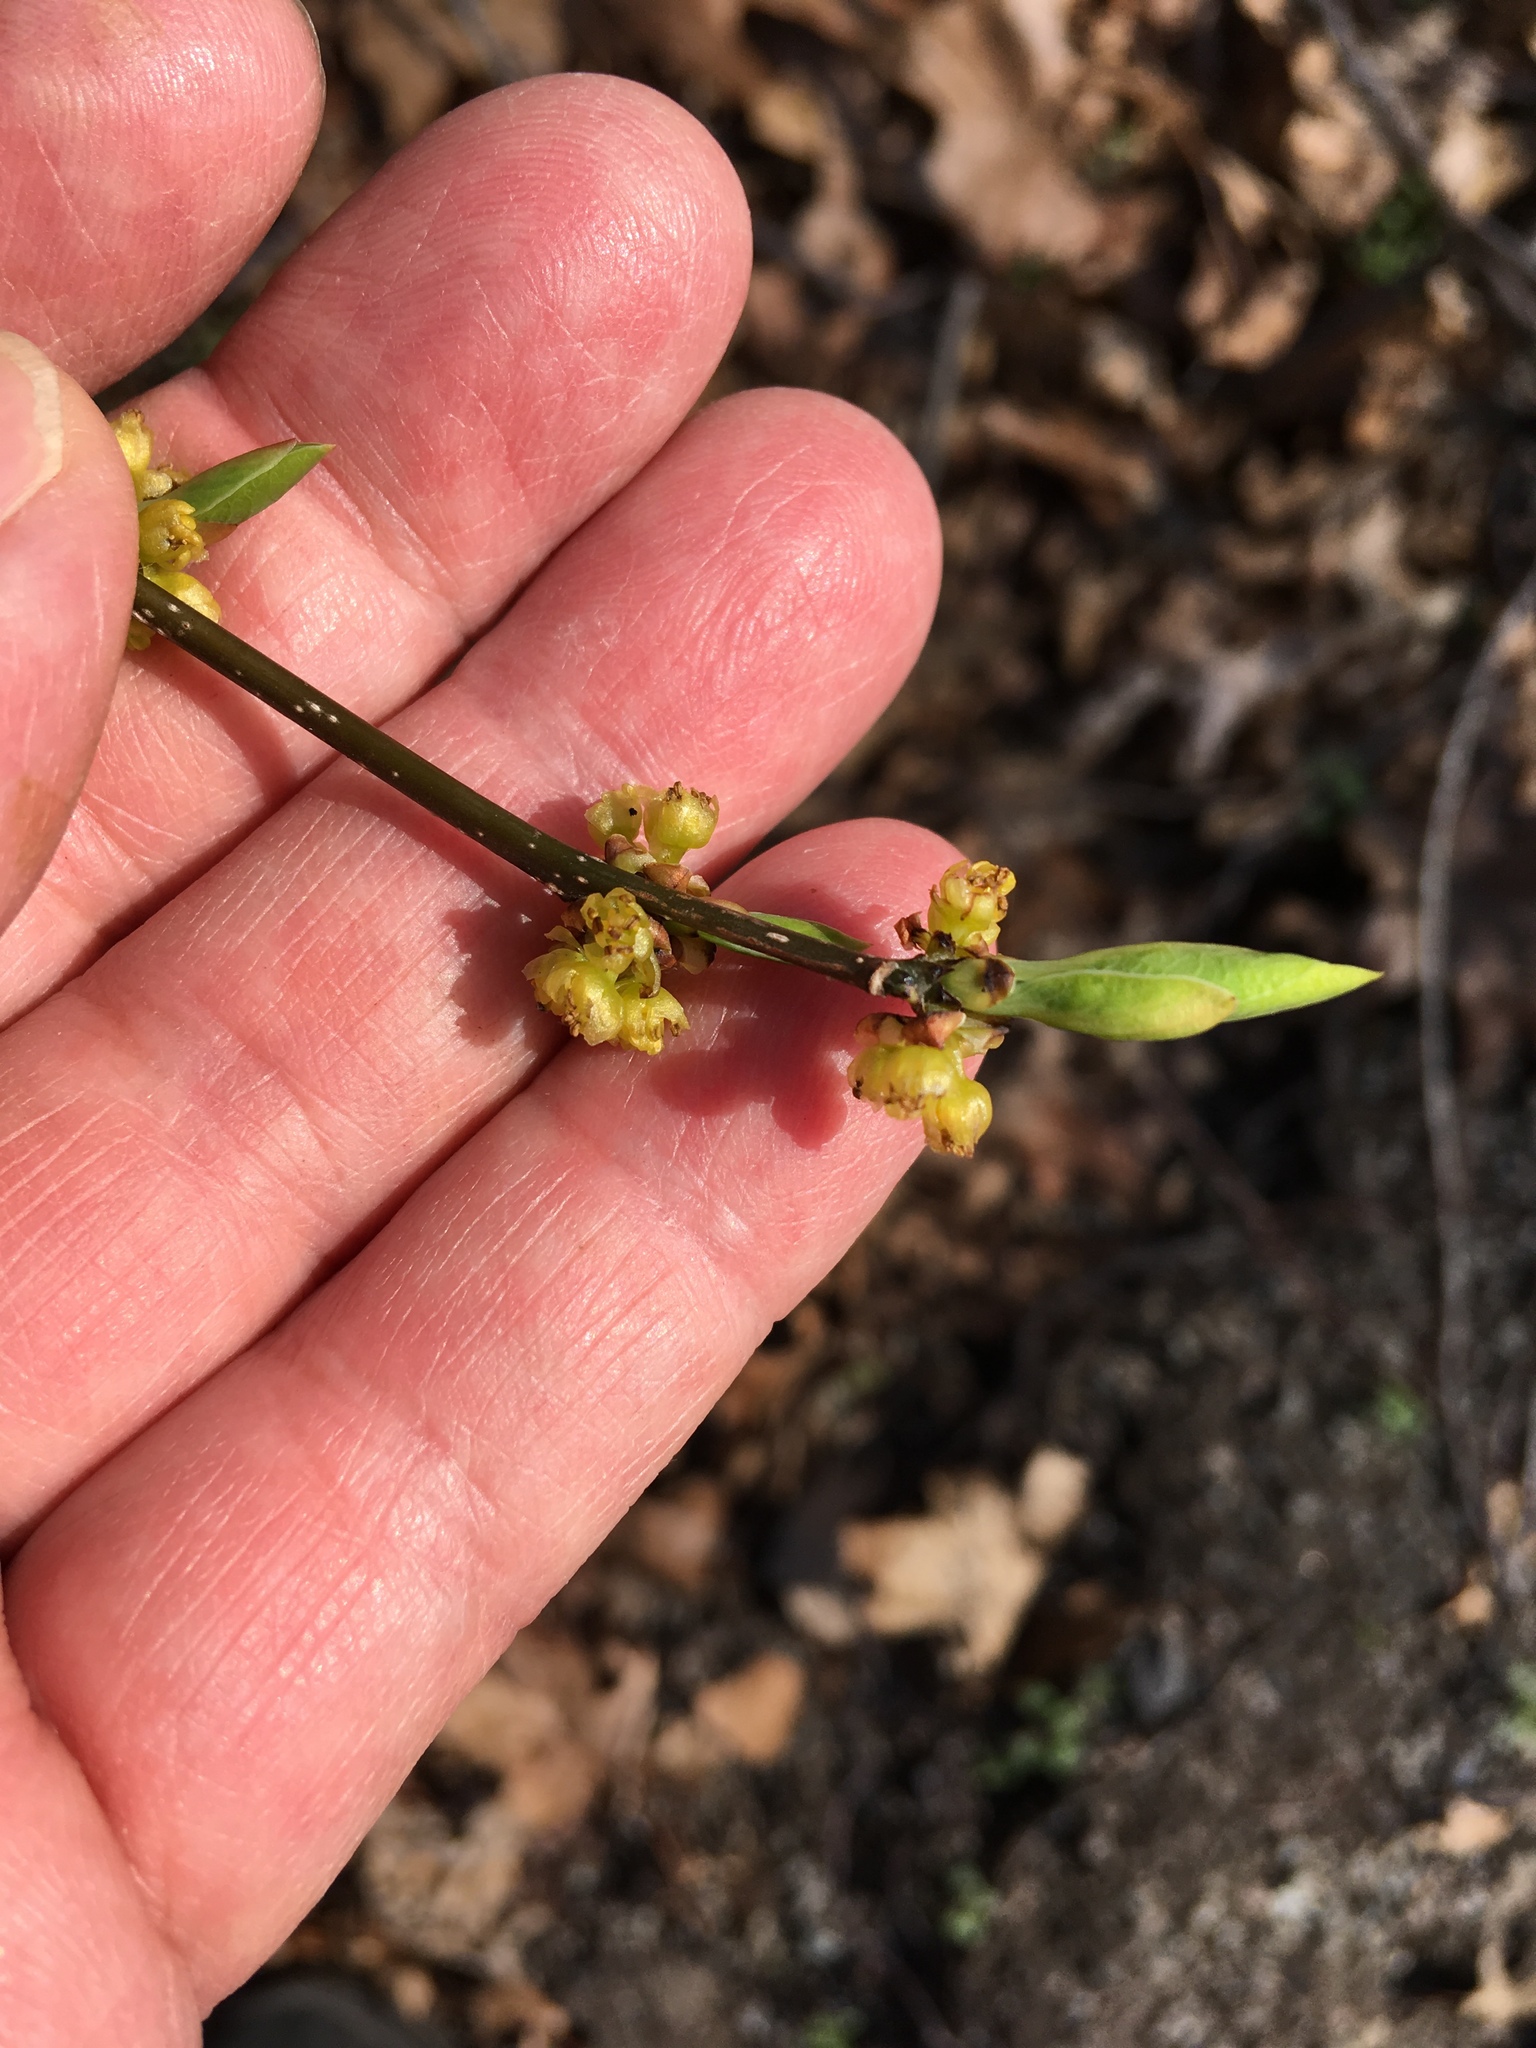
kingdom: Plantae
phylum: Tracheophyta
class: Magnoliopsida
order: Laurales
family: Lauraceae
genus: Lindera
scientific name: Lindera benzoin
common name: Spicebush
